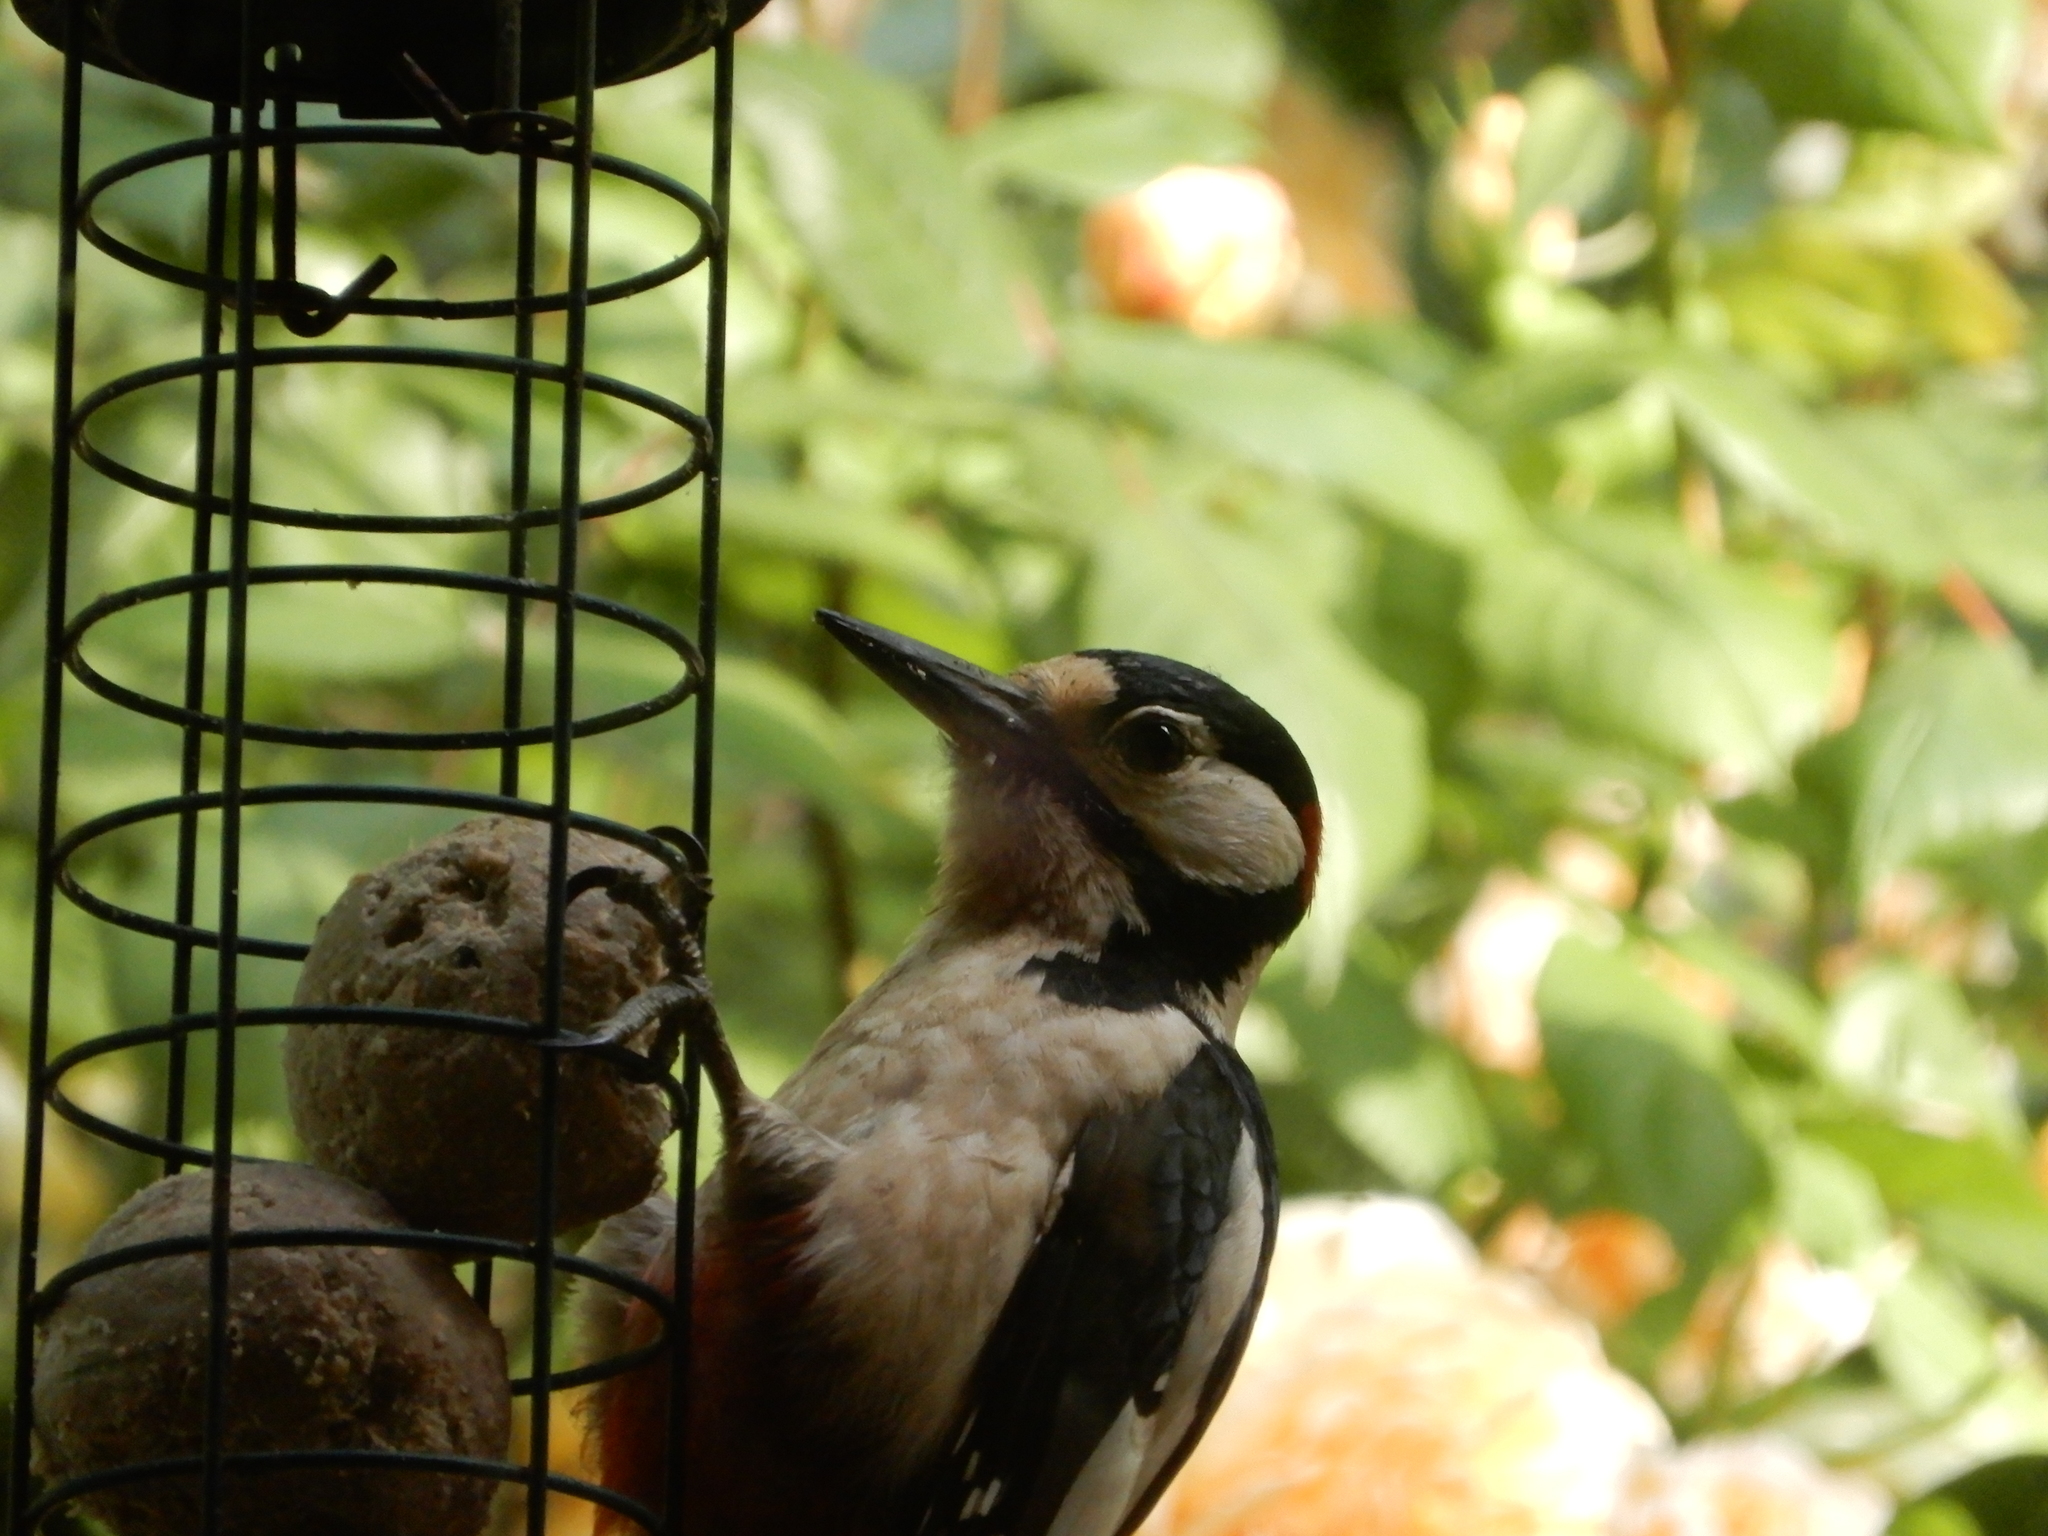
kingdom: Animalia
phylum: Chordata
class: Aves
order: Piciformes
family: Picidae
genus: Dendrocopos
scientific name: Dendrocopos major
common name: Great spotted woodpecker
